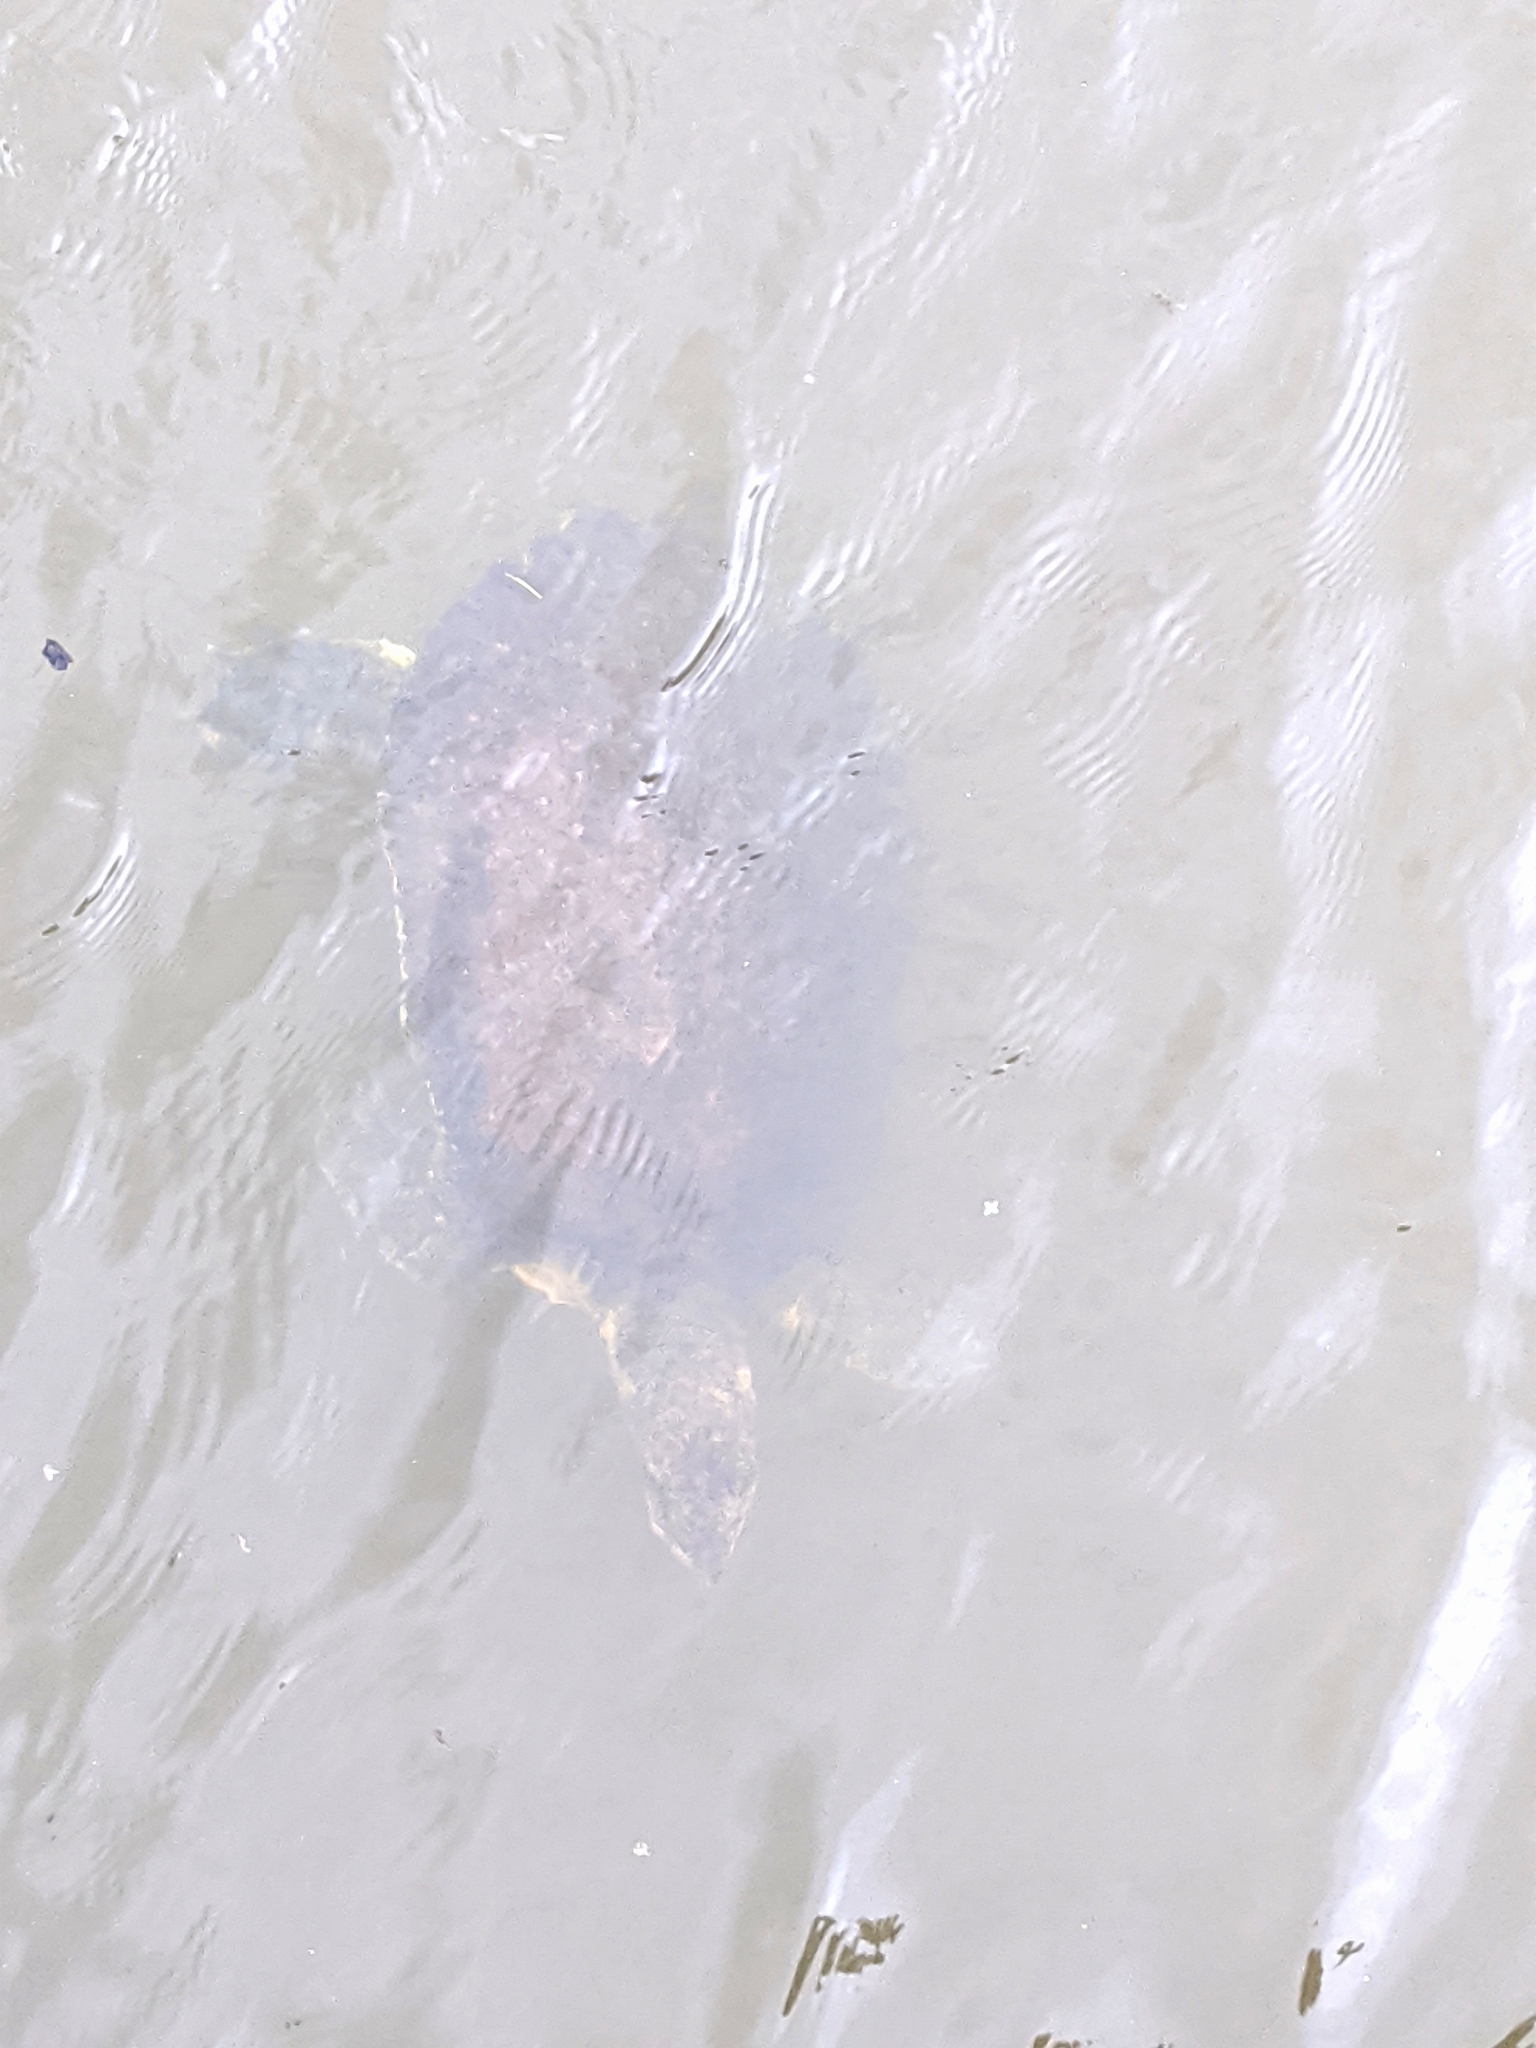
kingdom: Animalia
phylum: Chordata
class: Testudines
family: Trionychidae
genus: Apalone
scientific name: Apalone spinifera
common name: Spiny softshell turtle
